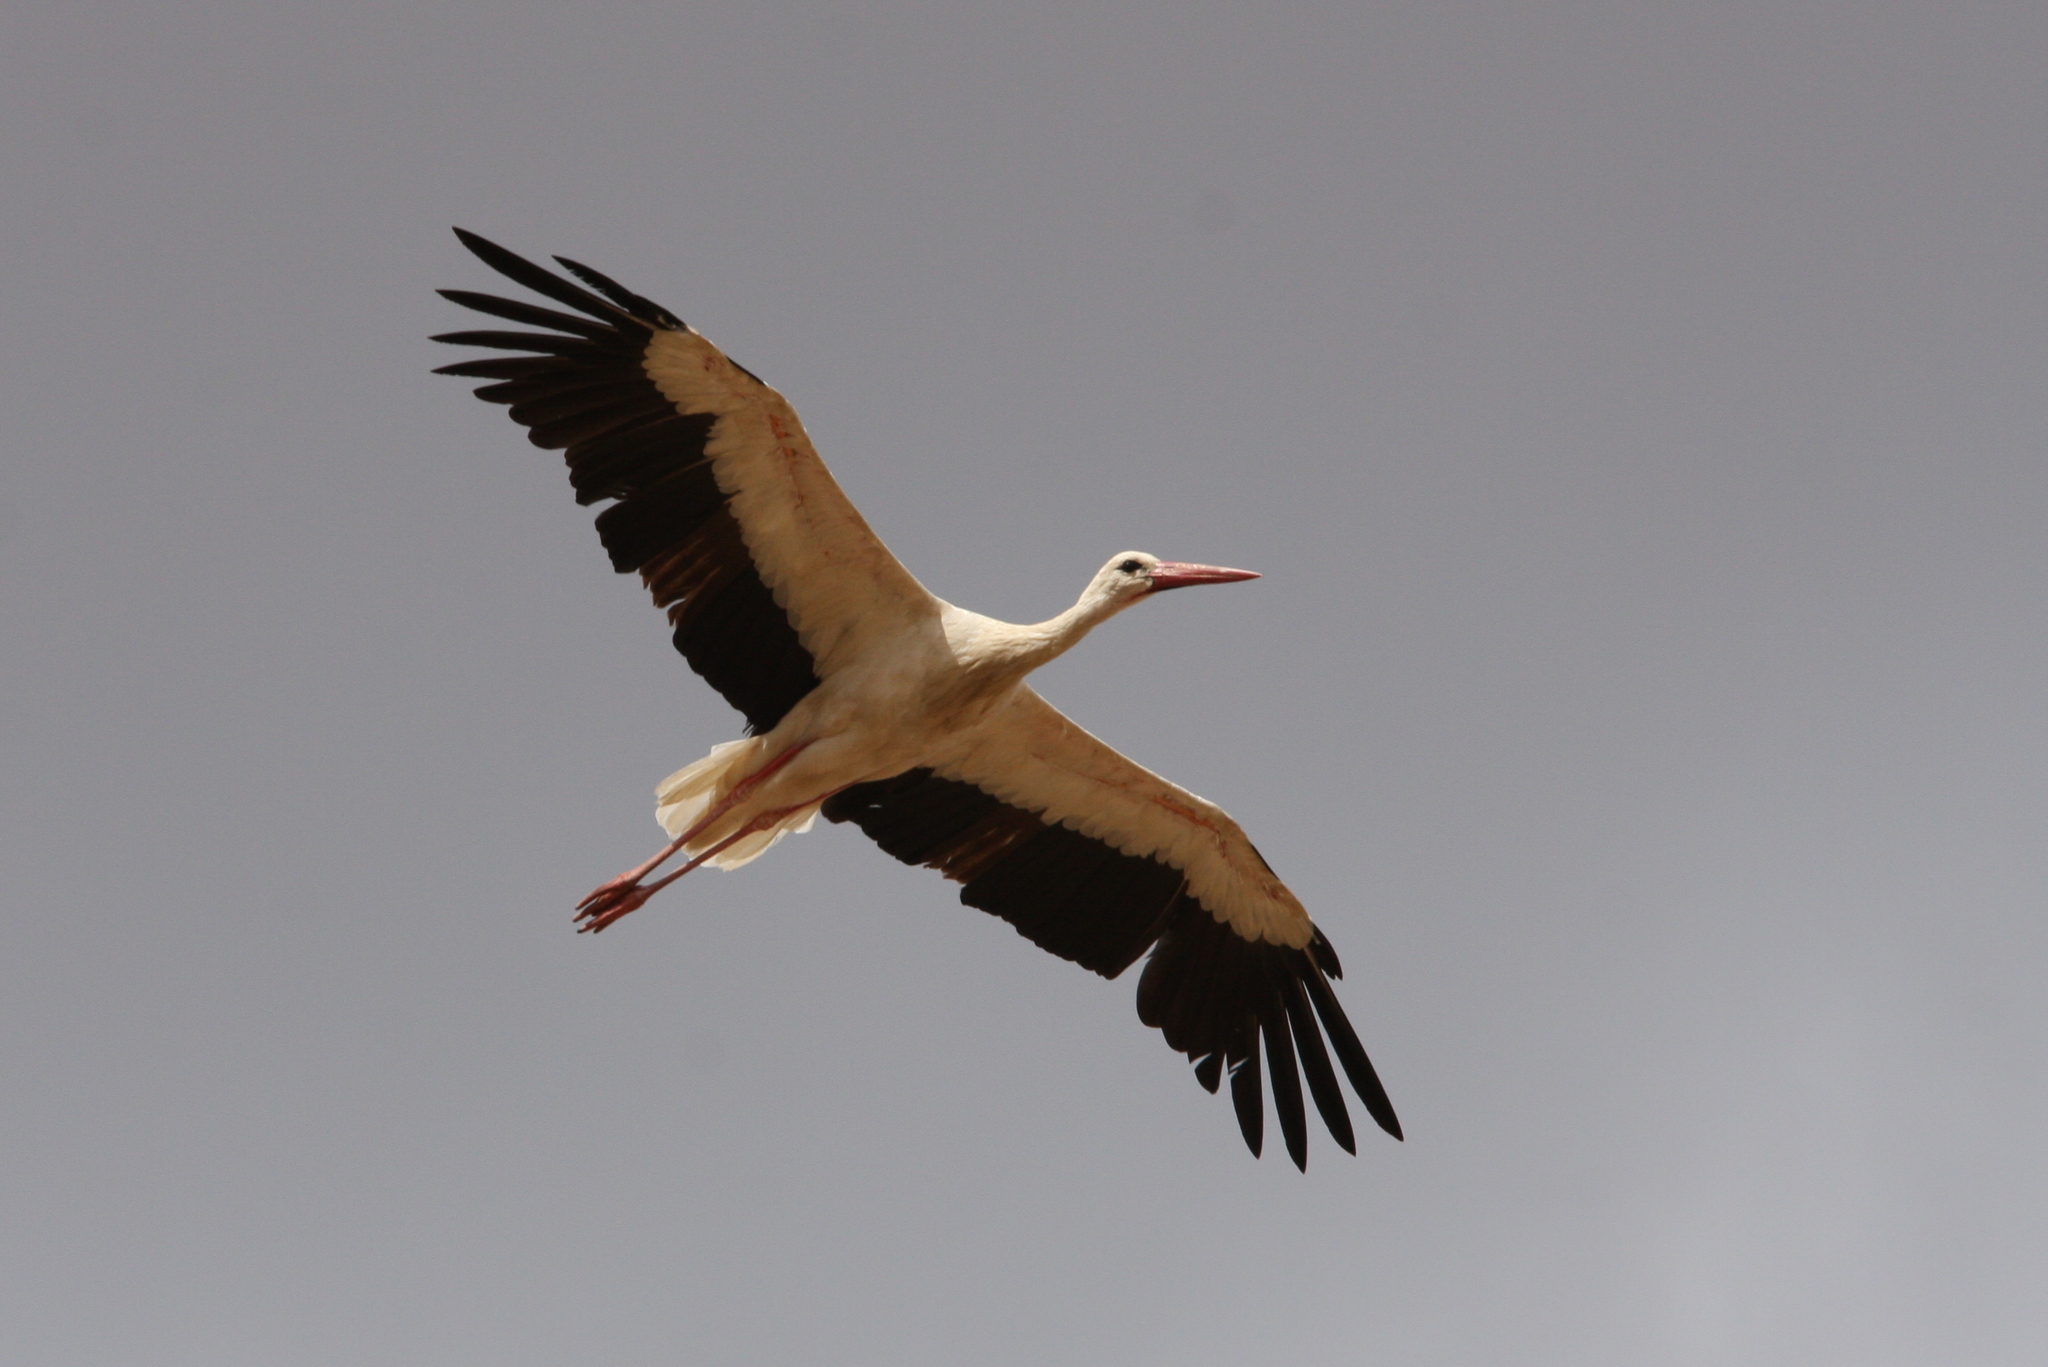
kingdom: Animalia
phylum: Chordata
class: Aves
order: Ciconiiformes
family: Ciconiidae
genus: Ciconia
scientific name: Ciconia ciconia
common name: White stork
